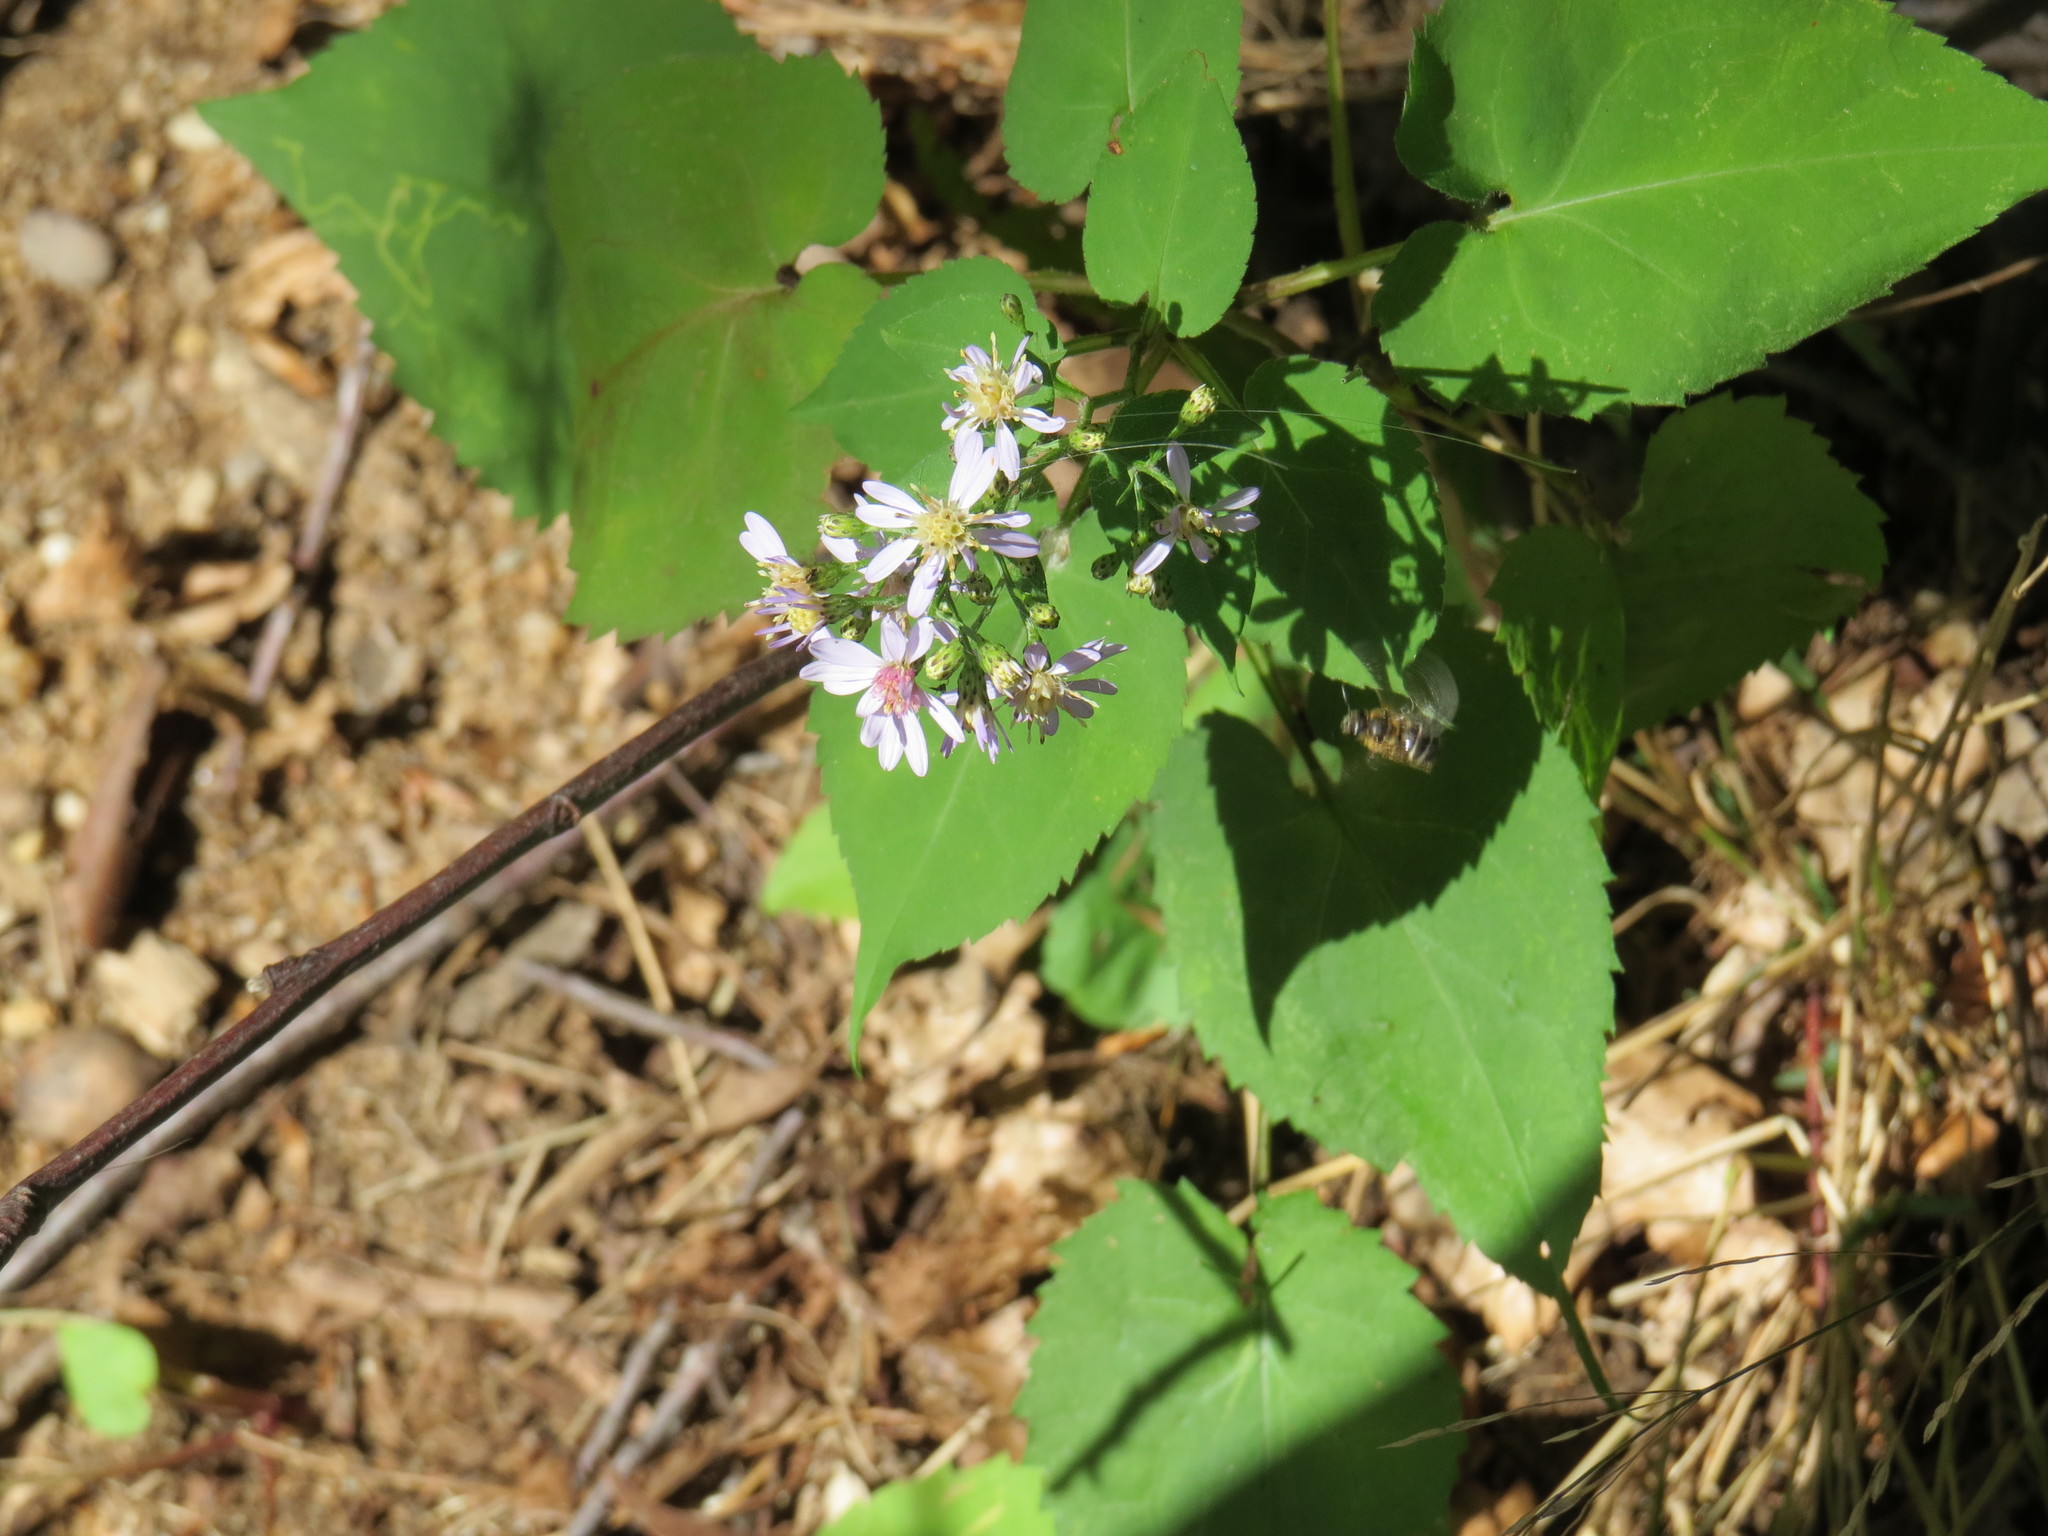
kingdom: Plantae
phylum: Tracheophyta
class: Magnoliopsida
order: Asterales
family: Asteraceae
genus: Symphyotrichum
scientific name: Symphyotrichum cordifolium
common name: Beeweed
